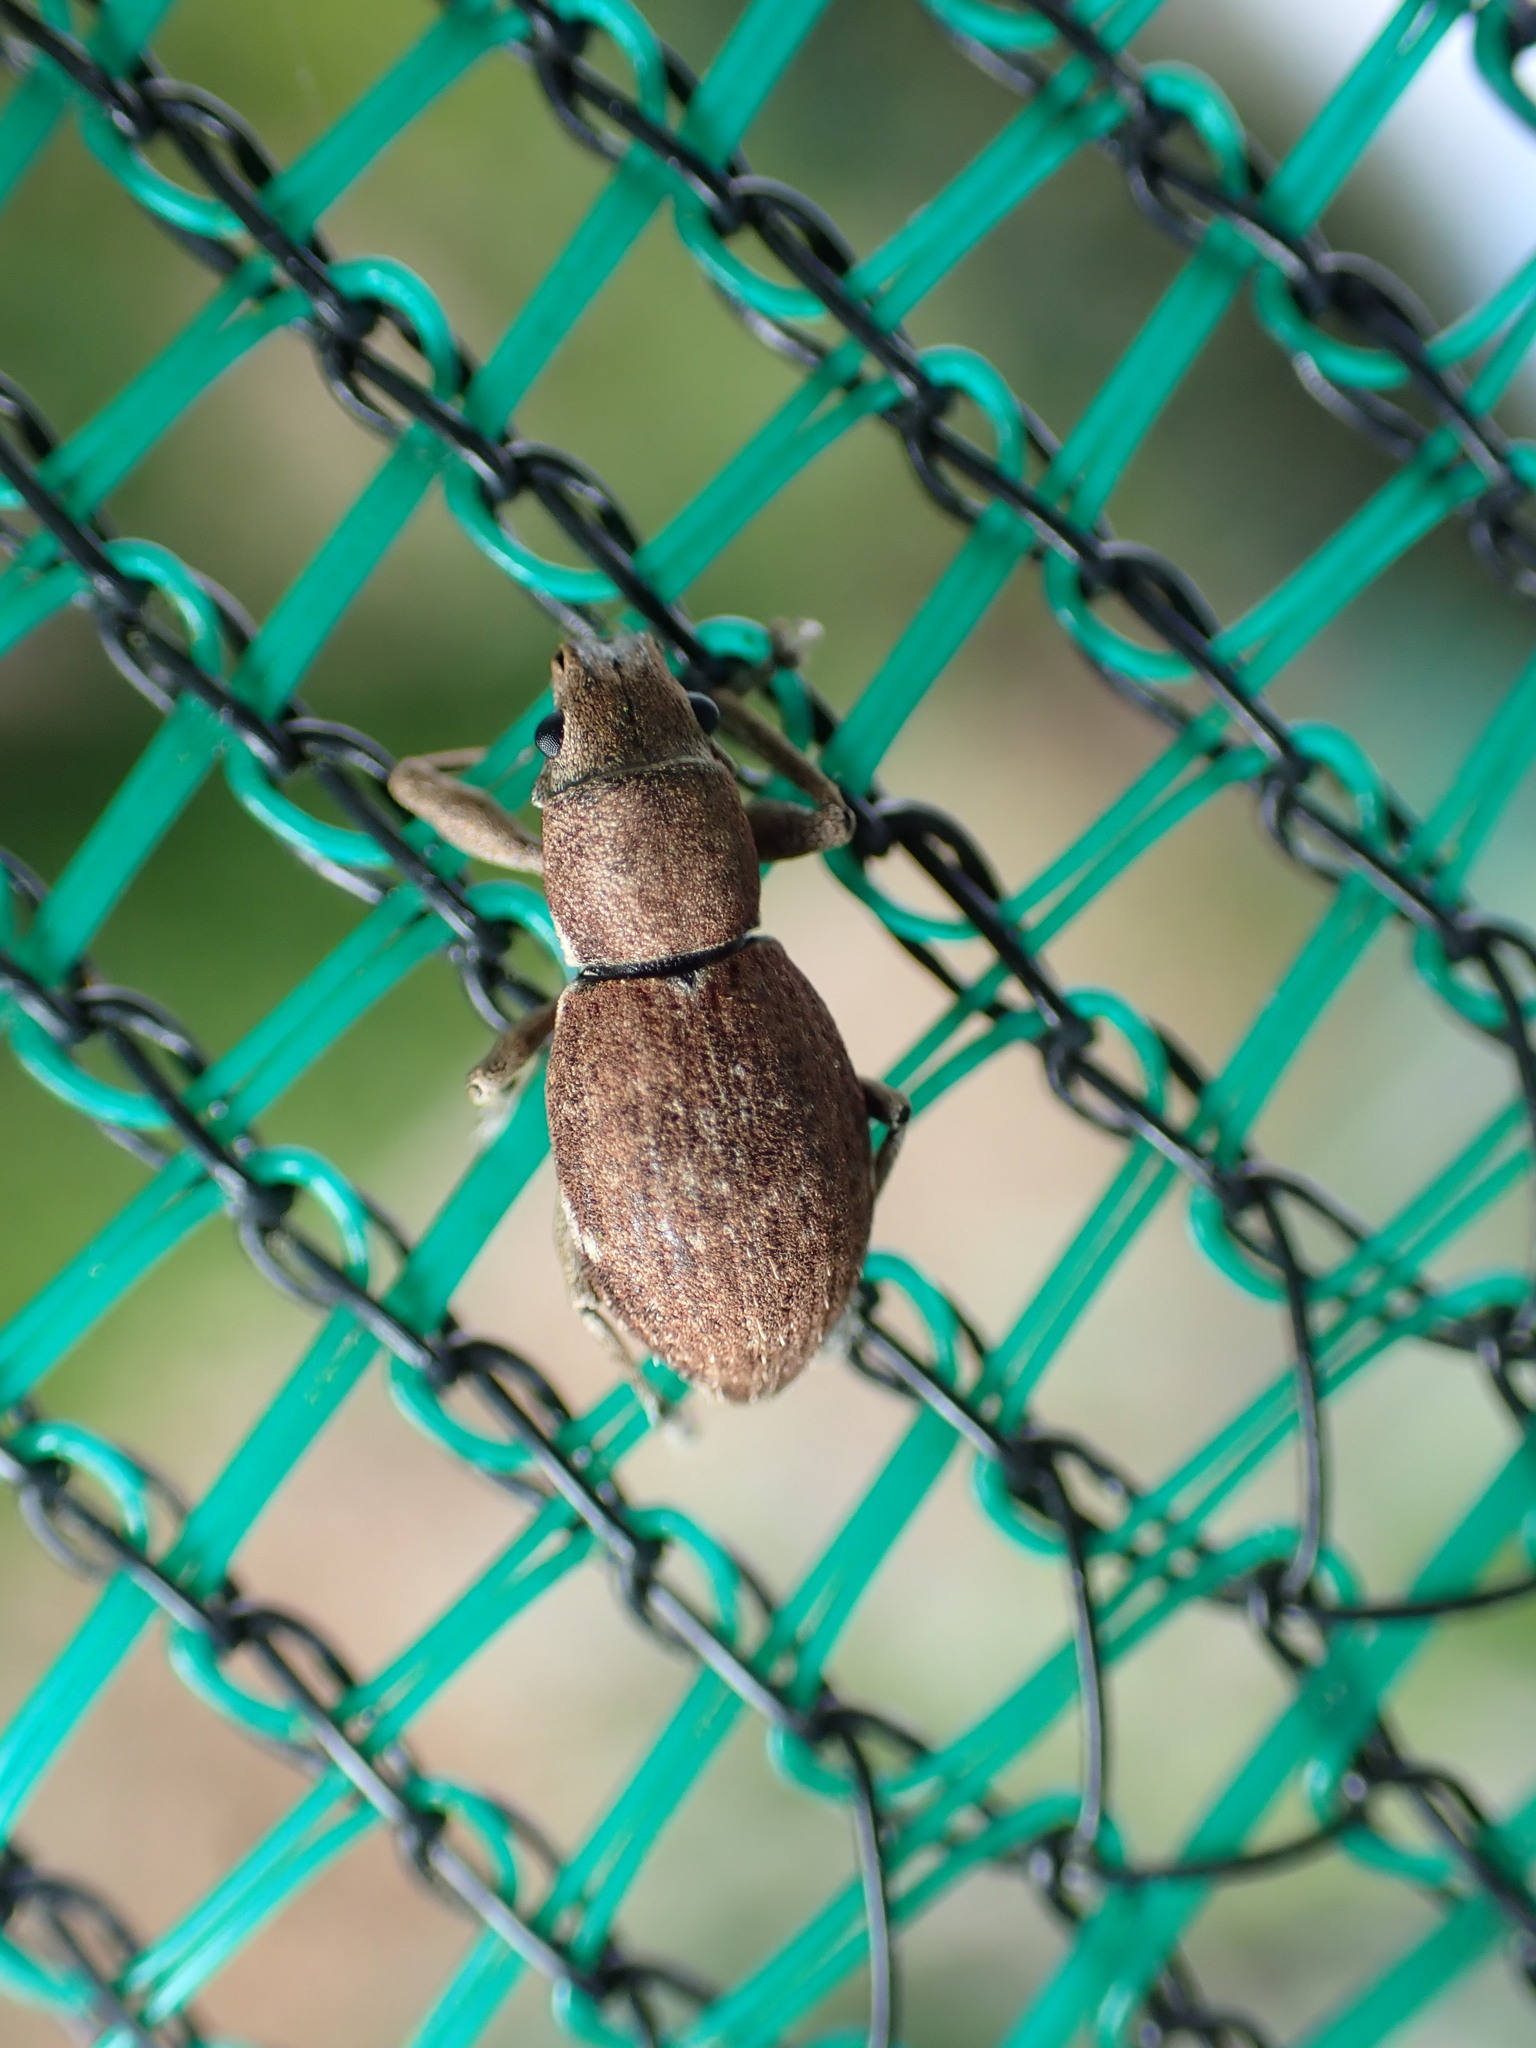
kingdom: Animalia
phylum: Arthropoda
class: Insecta
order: Coleoptera
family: Curculionidae
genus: Naupactus
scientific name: Naupactus cervinus
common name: Fuller rose beetle
